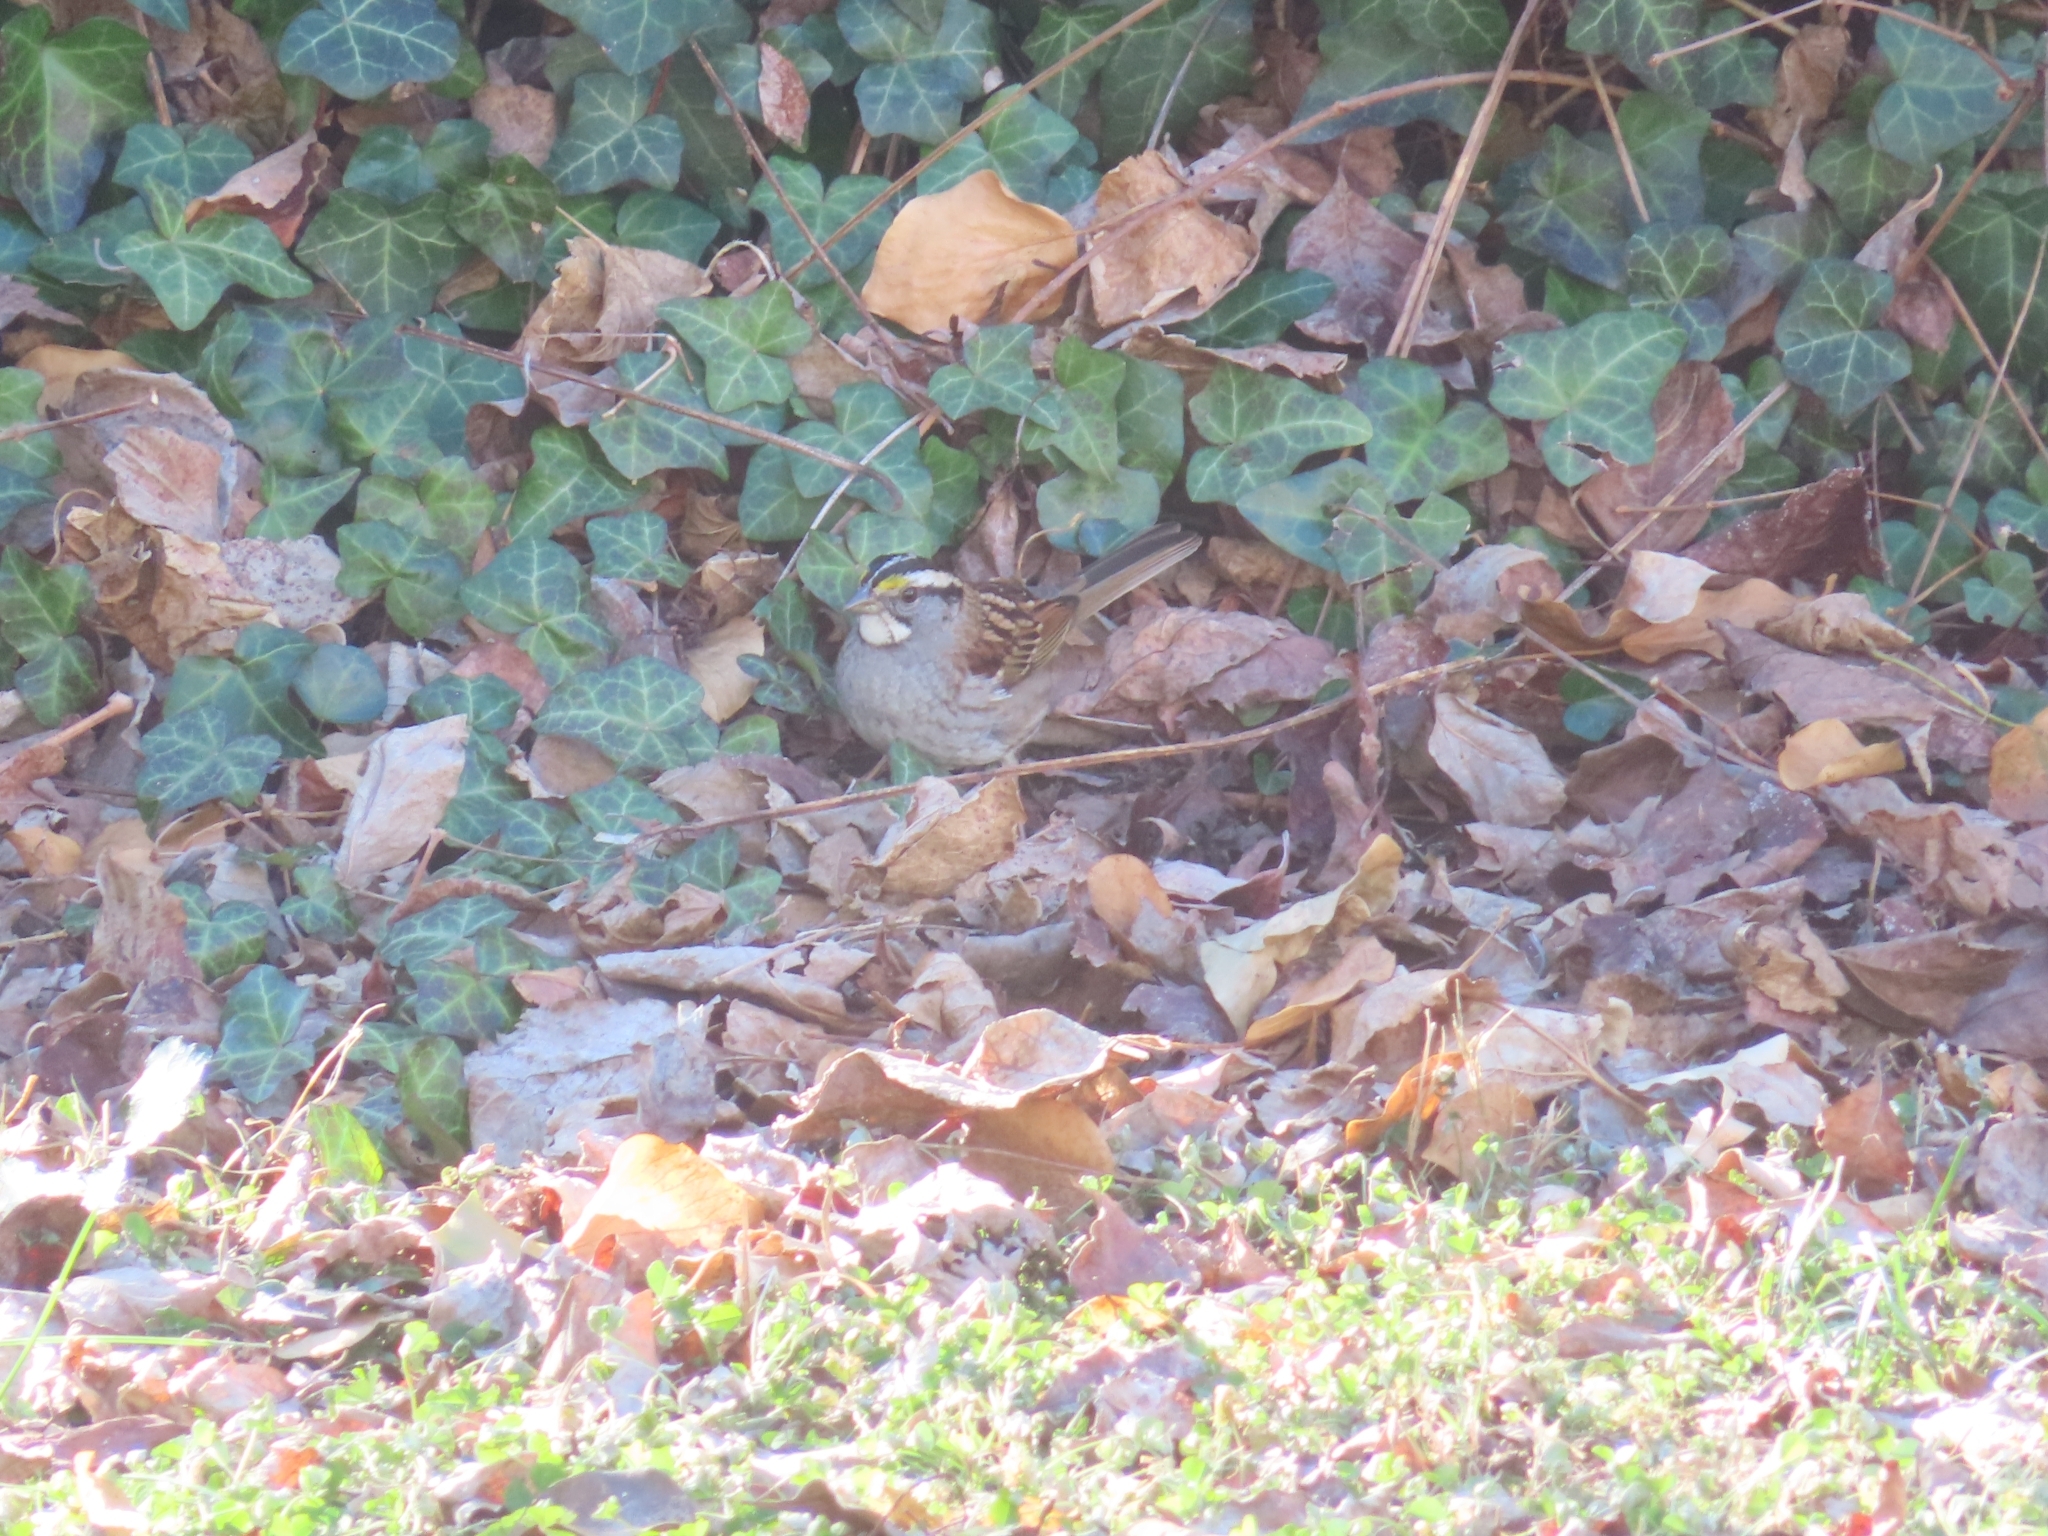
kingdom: Animalia
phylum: Chordata
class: Aves
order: Passeriformes
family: Passerellidae
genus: Zonotrichia
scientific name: Zonotrichia albicollis
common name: White-throated sparrow
